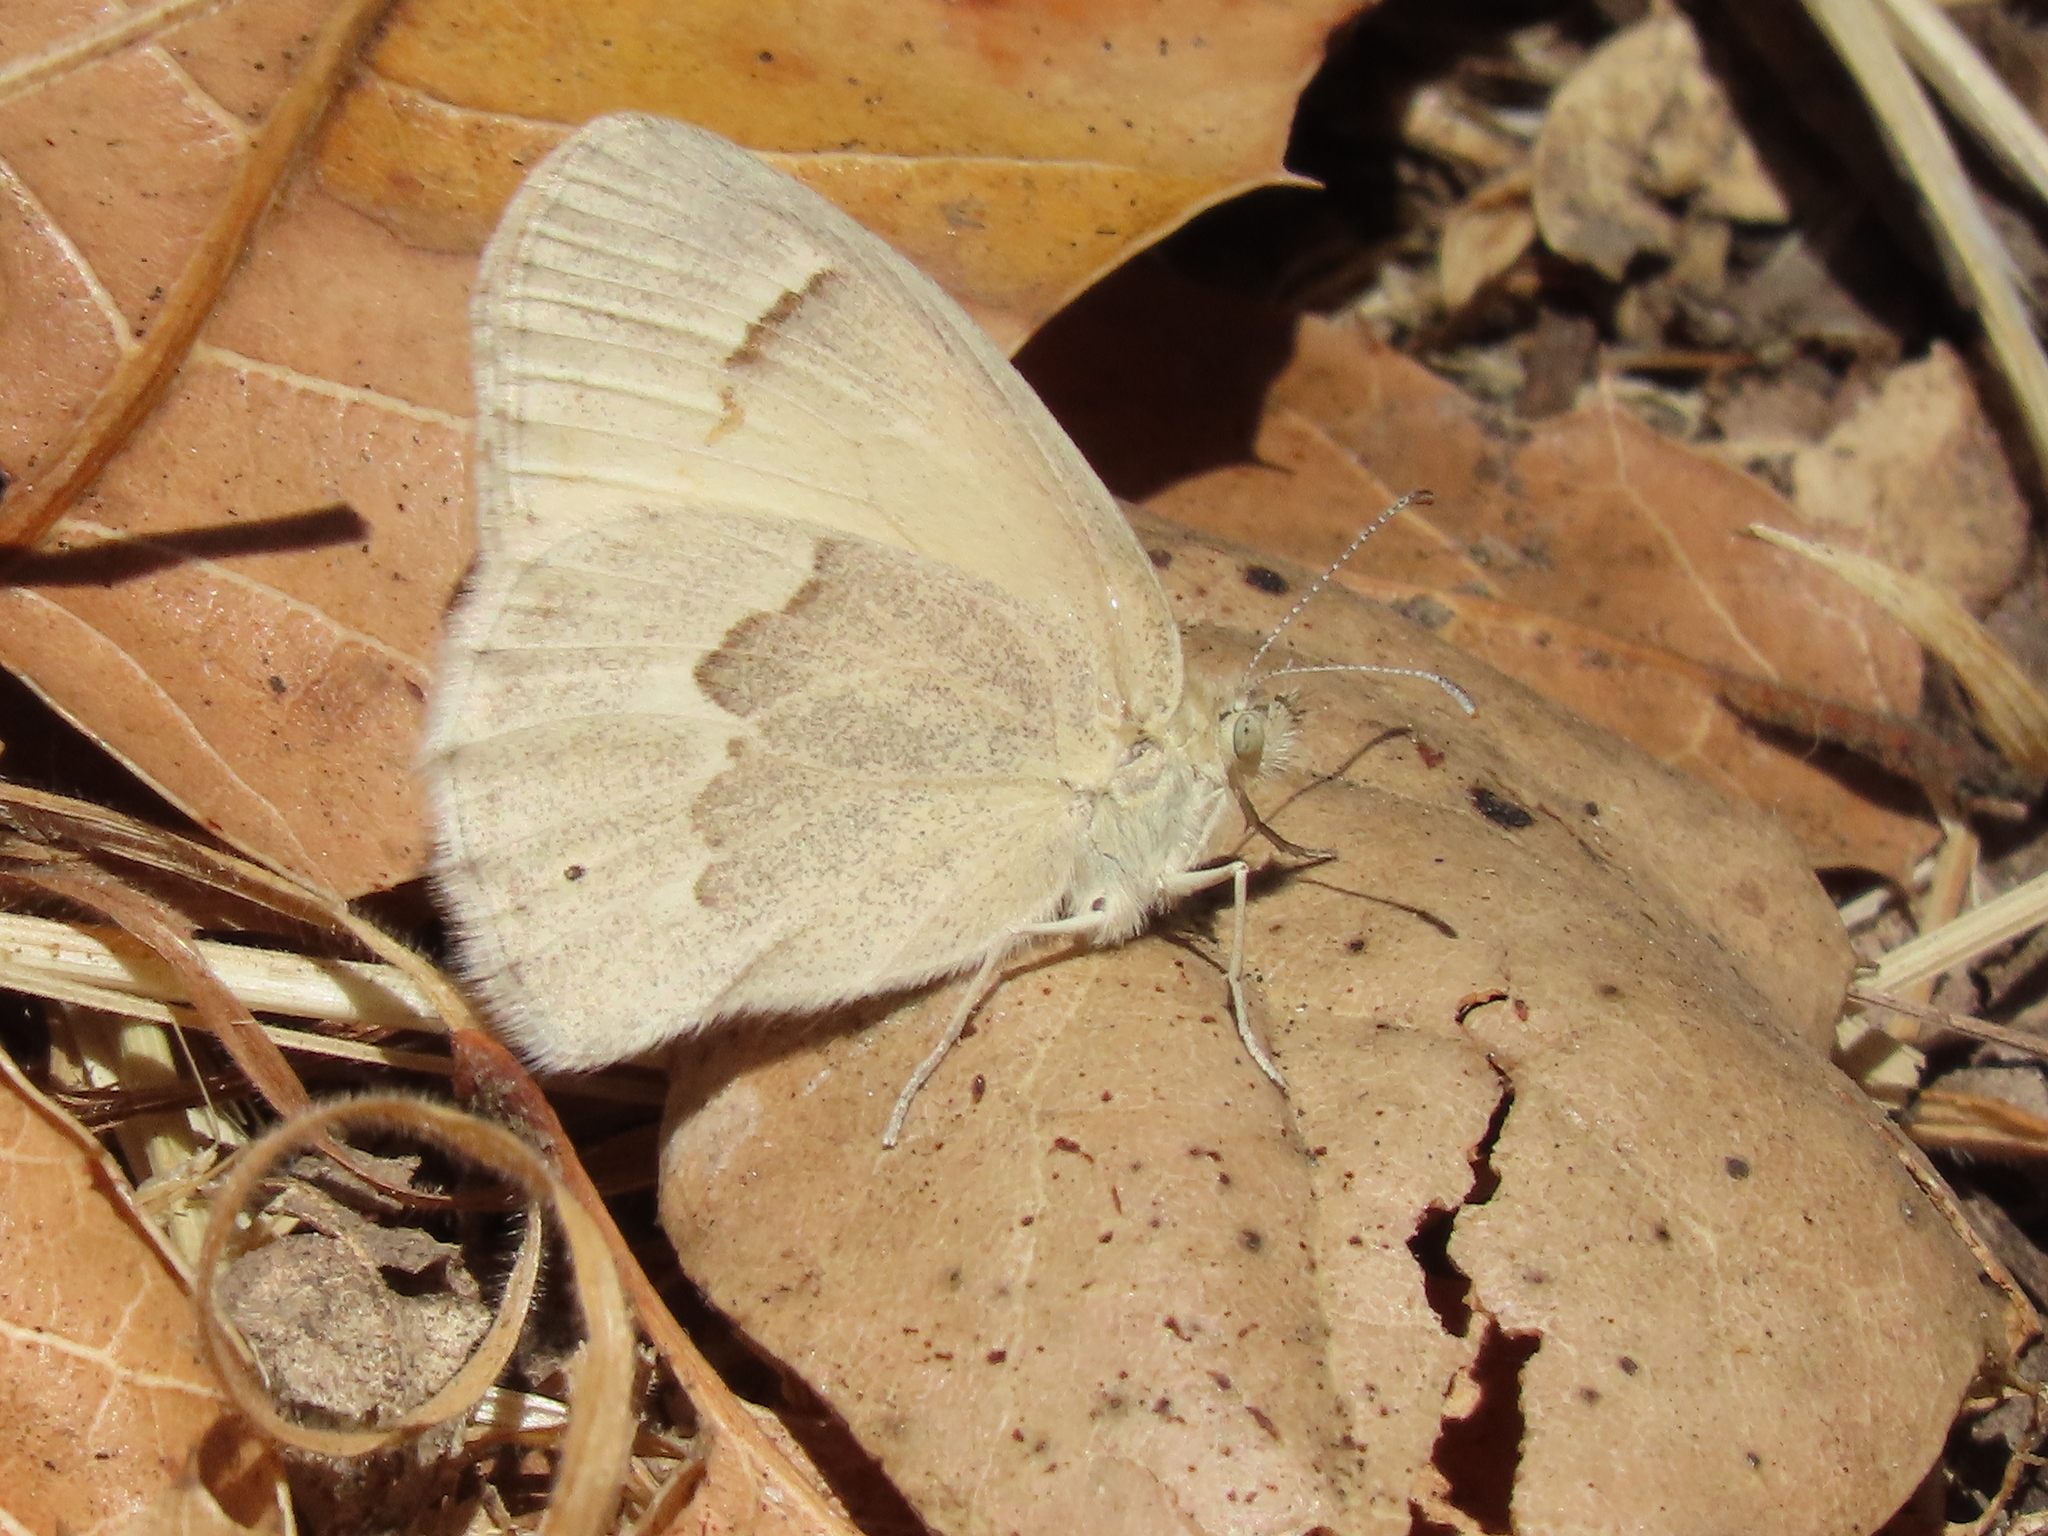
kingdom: Animalia
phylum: Arthropoda
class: Insecta
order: Lepidoptera
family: Nymphalidae
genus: Coenonympha
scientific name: Coenonympha california
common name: Common ringlet
